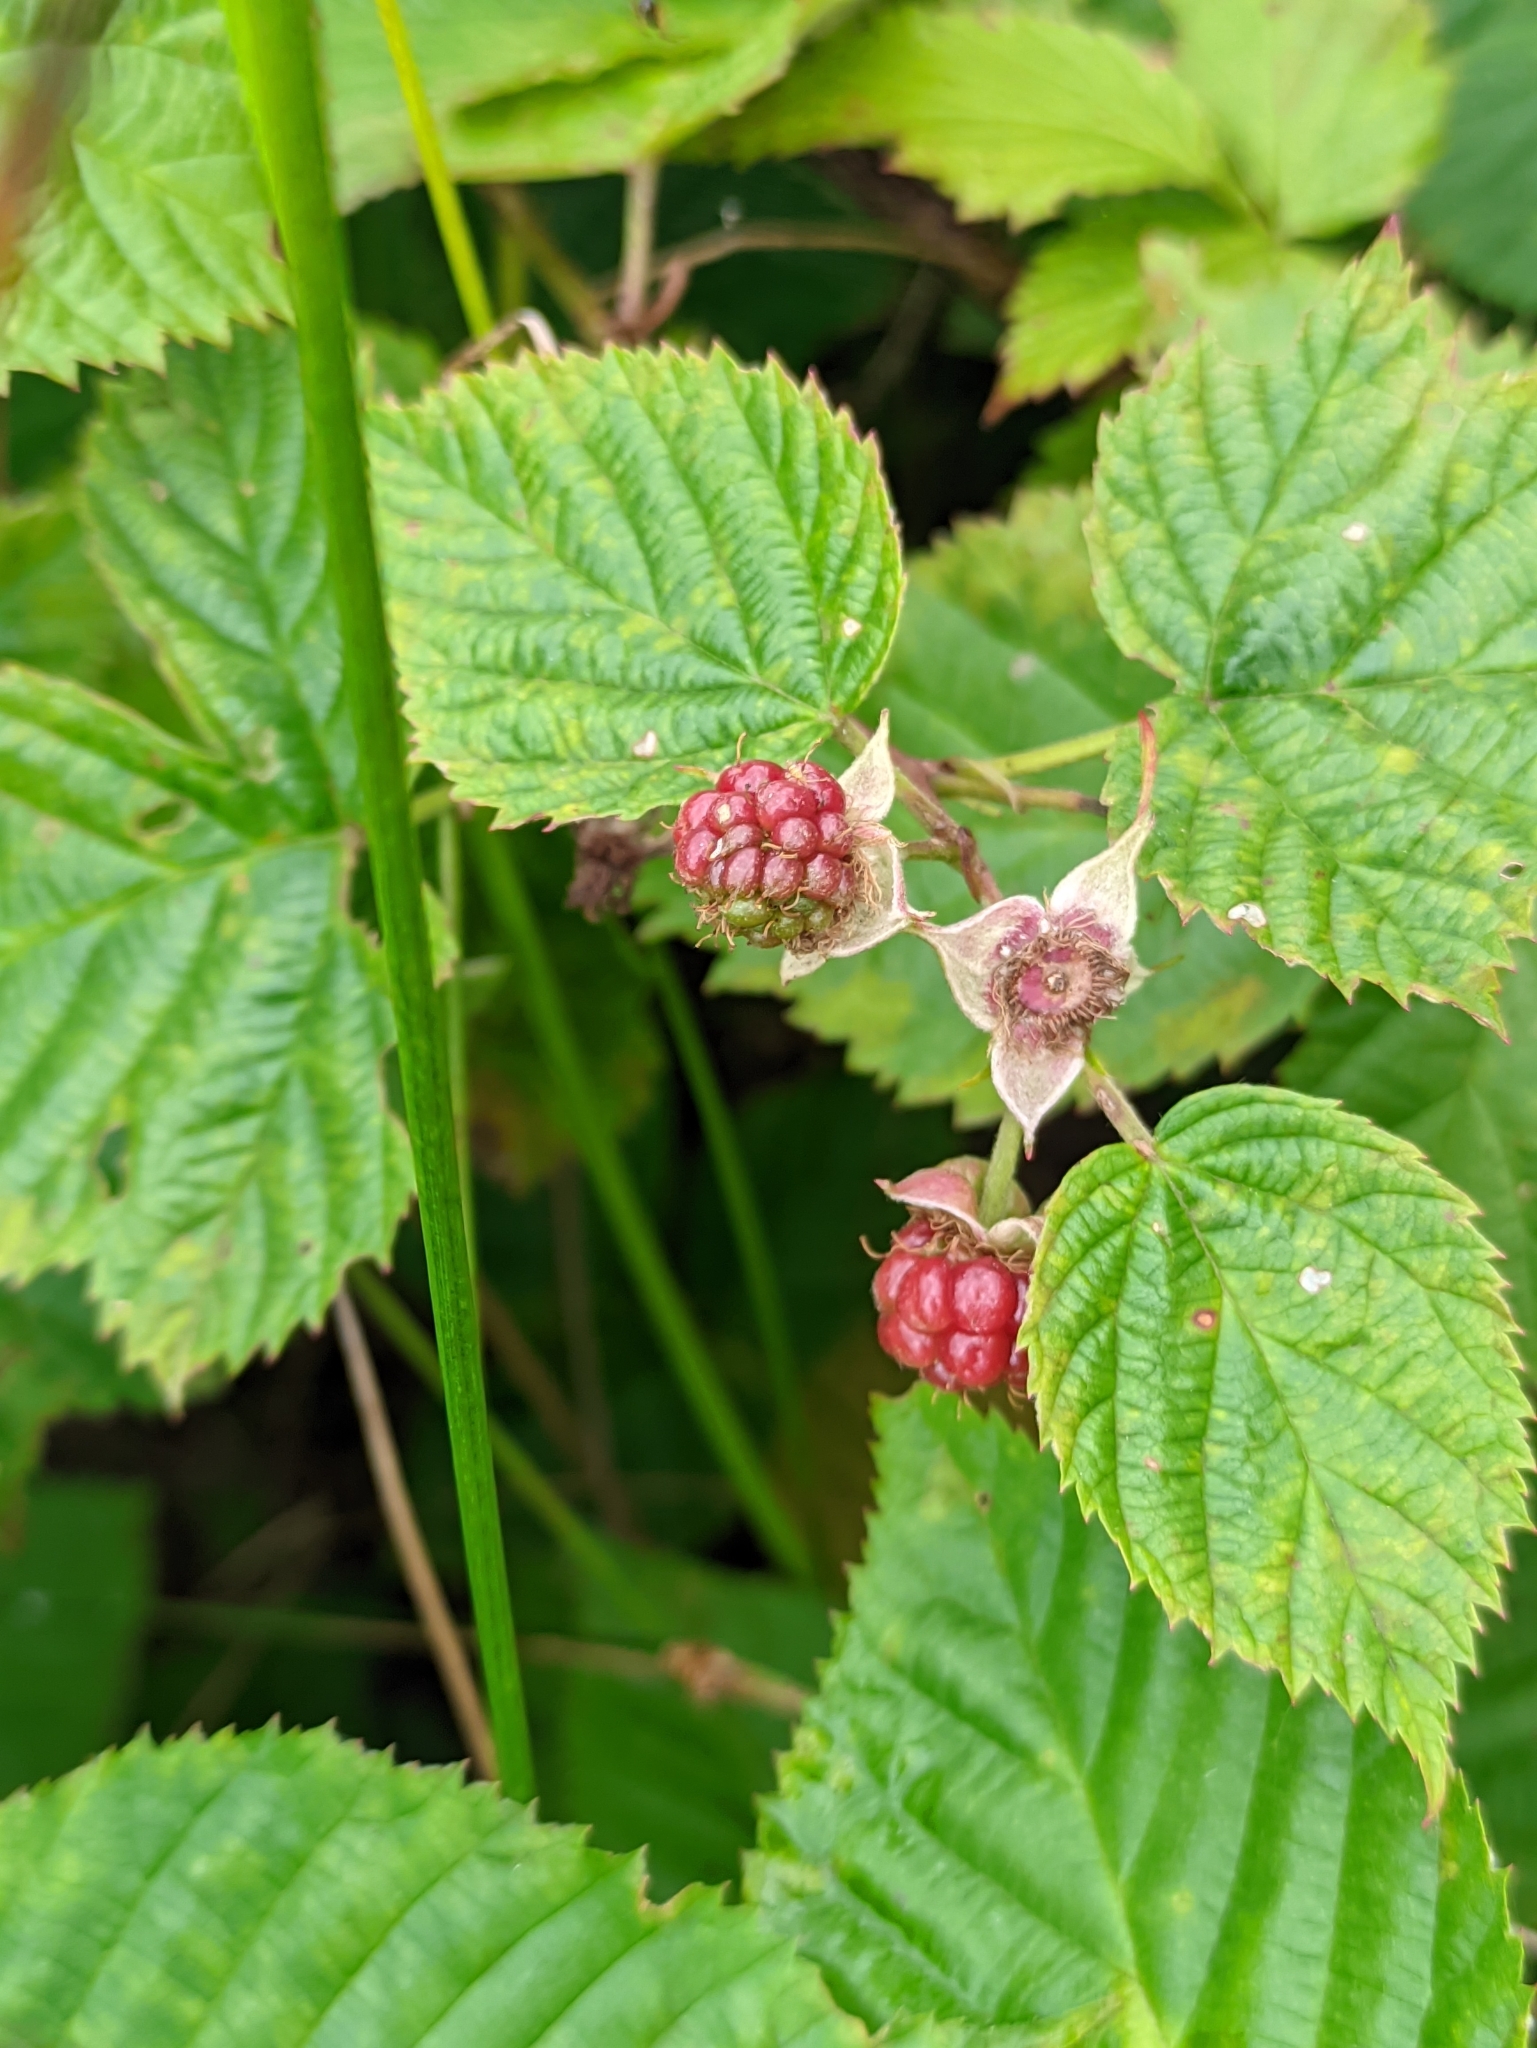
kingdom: Plantae
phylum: Tracheophyta
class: Magnoliopsida
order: Rosales
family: Rosaceae
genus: Rubus
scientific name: Rubus polonicus
